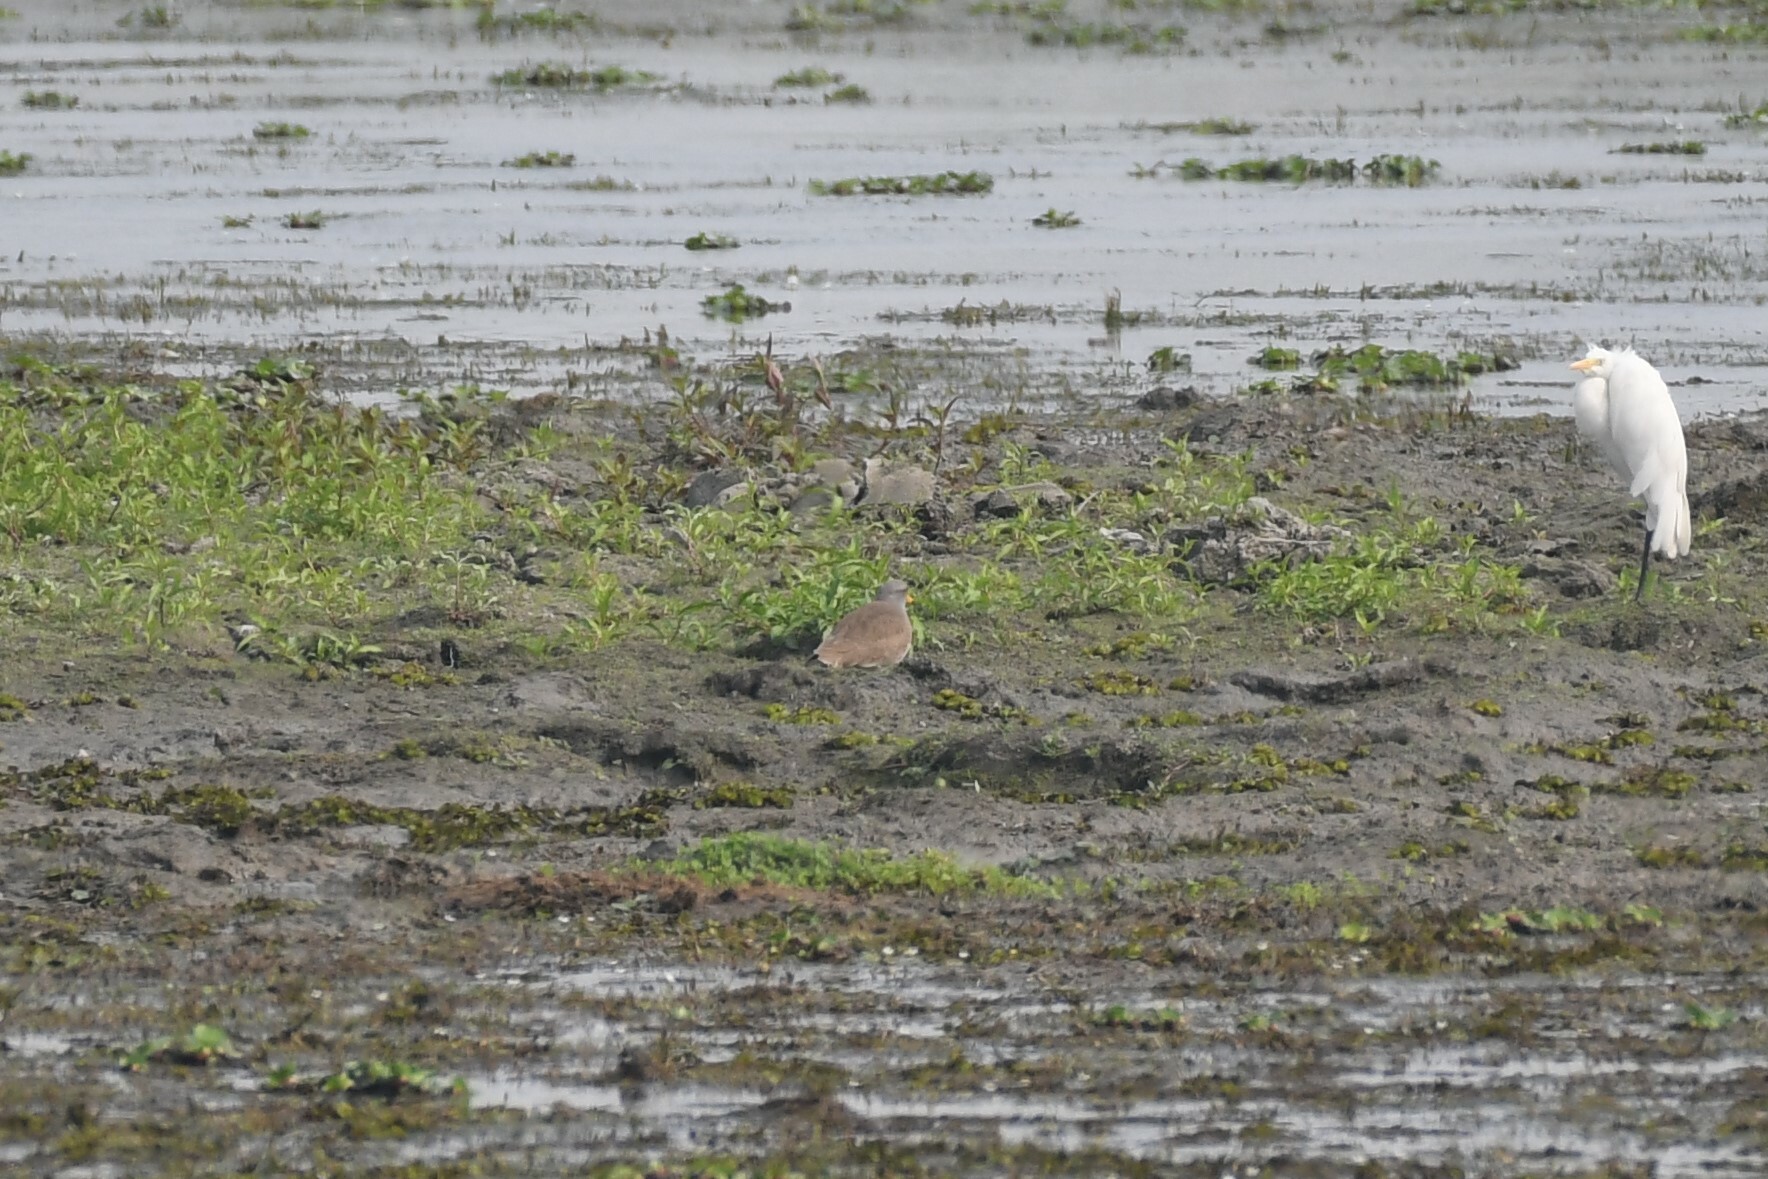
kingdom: Animalia
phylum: Chordata
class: Aves
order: Charadriiformes
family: Charadriidae
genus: Vanellus
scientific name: Vanellus cinereus
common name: Grey-headed lapwing
